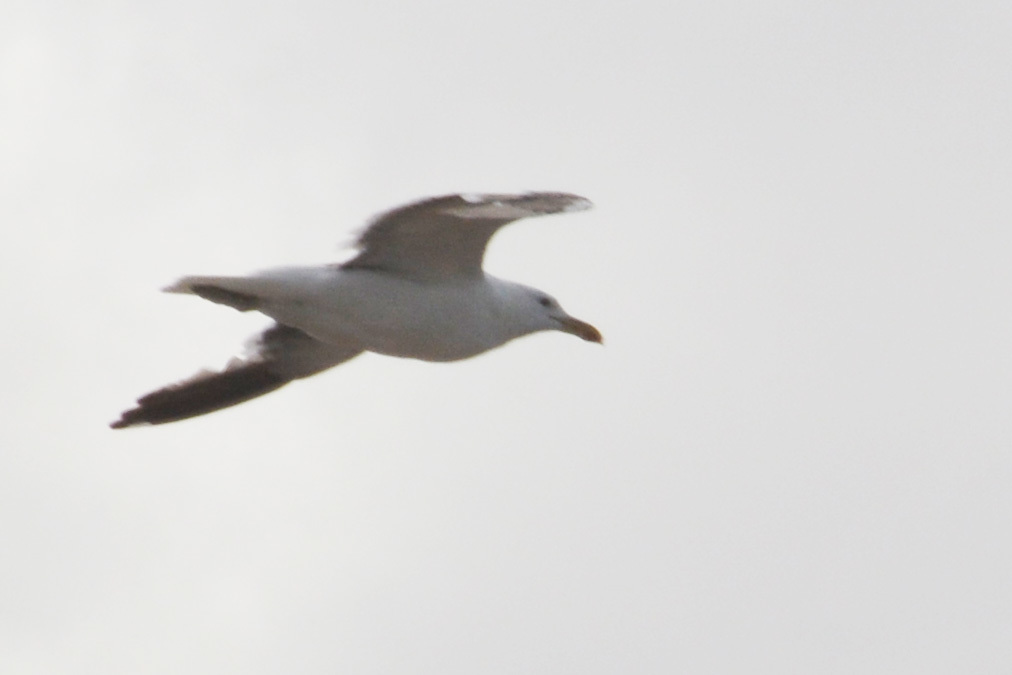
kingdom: Animalia
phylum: Chordata
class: Aves
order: Charadriiformes
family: Laridae
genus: Larus
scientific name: Larus dominicanus
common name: Kelp gull
